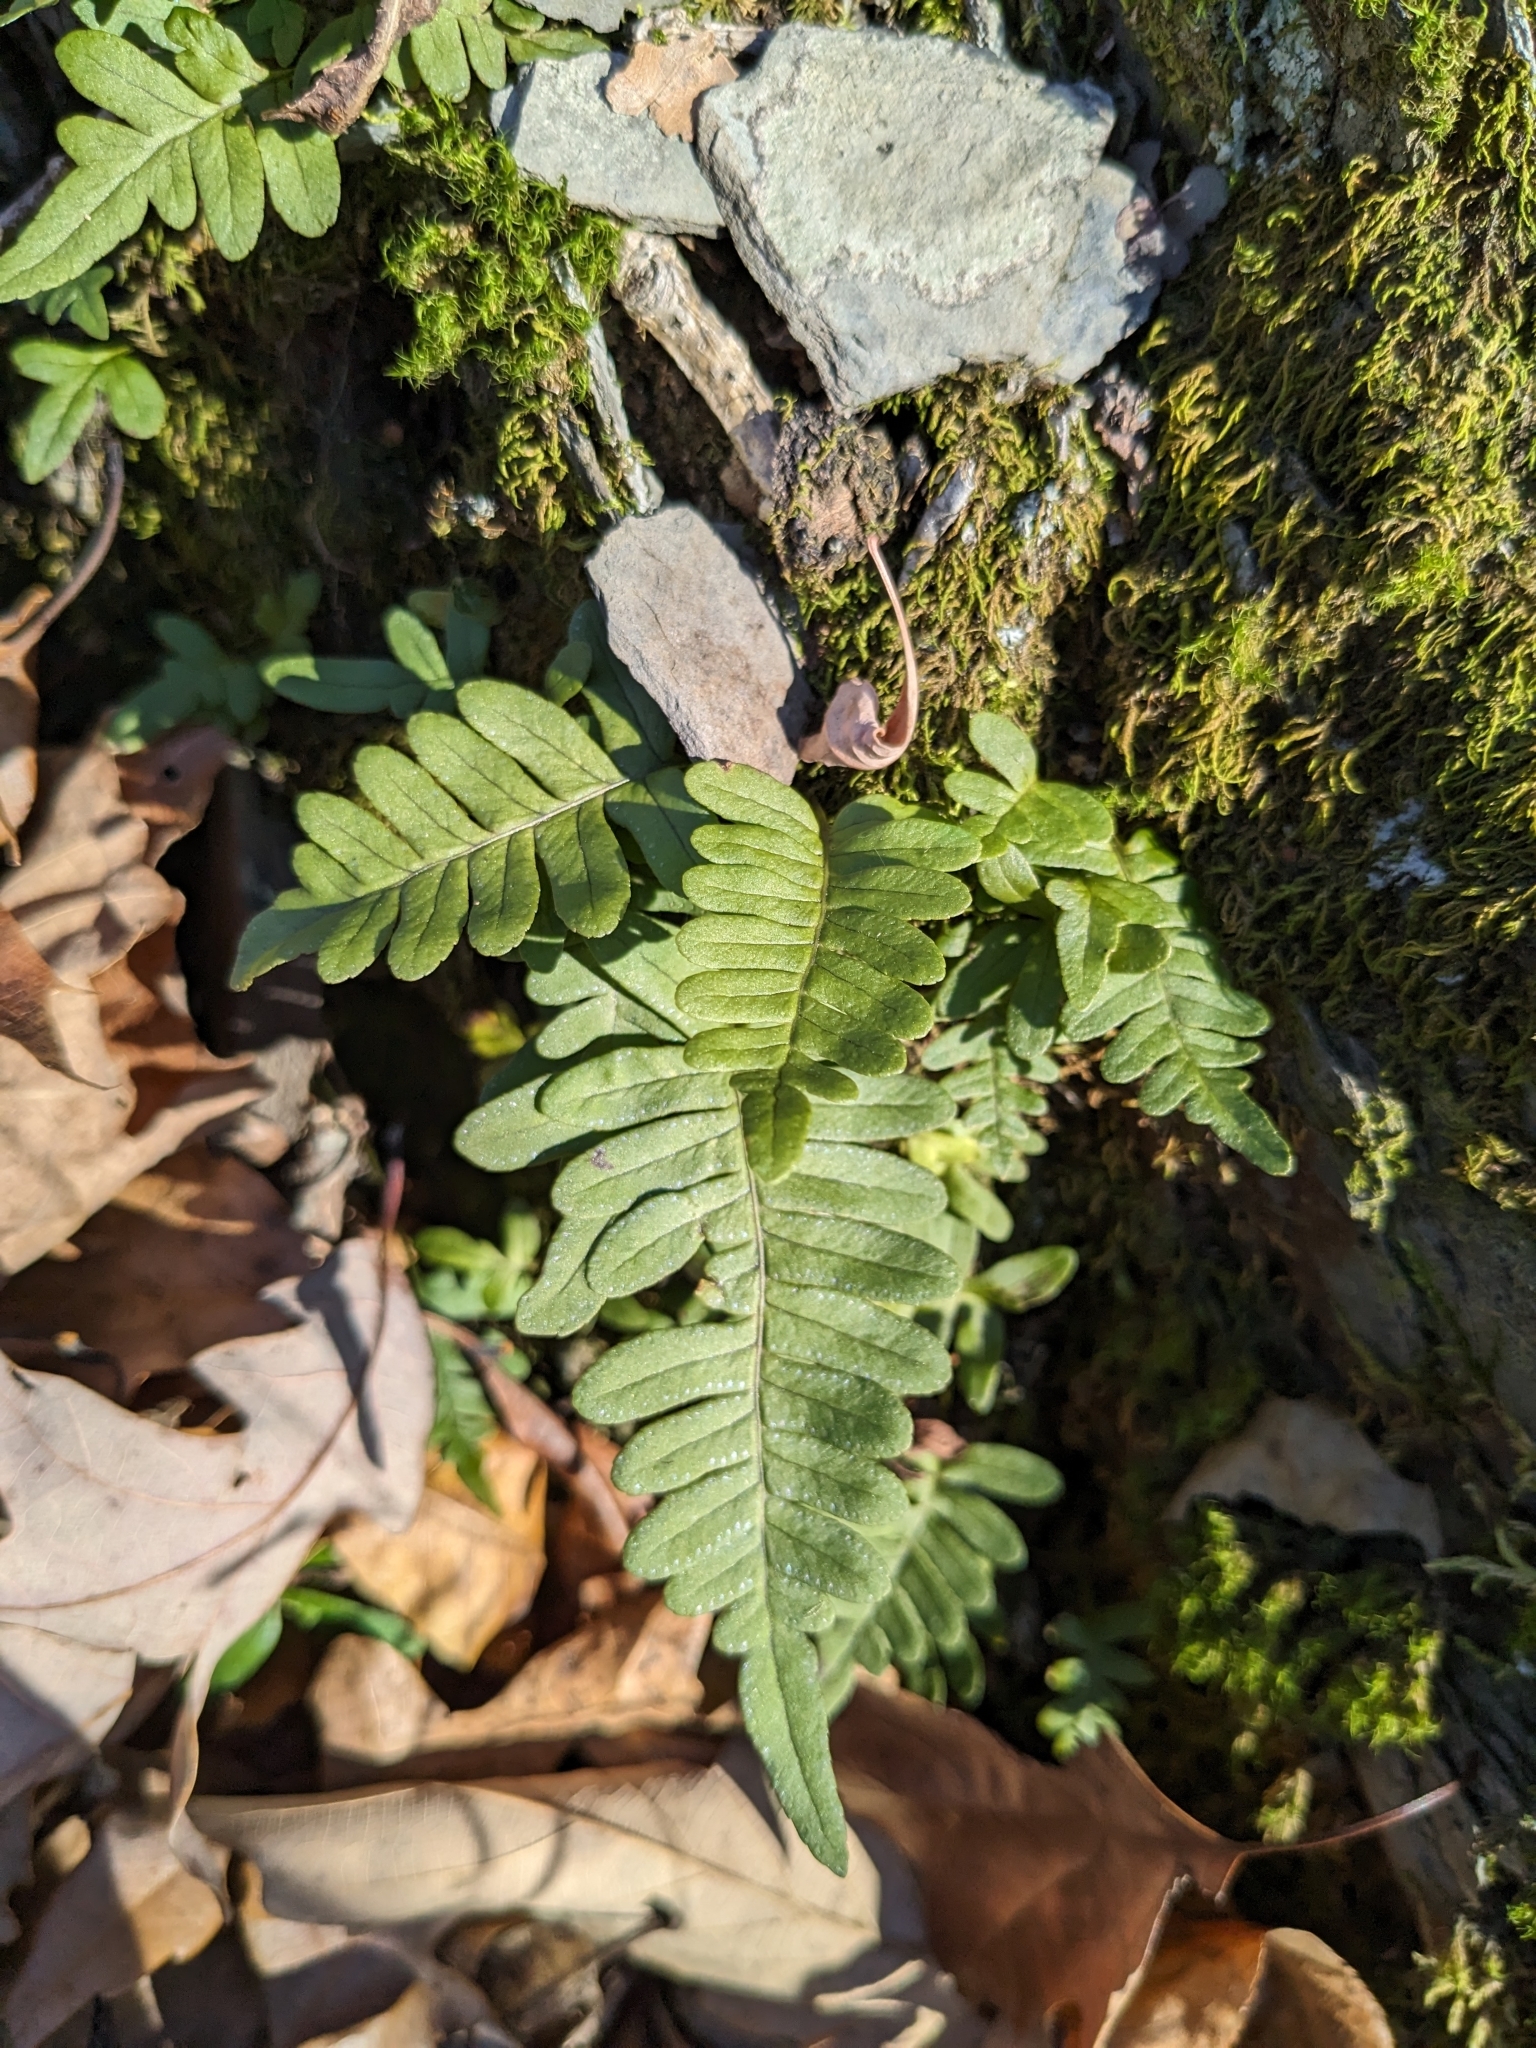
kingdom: Plantae
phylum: Tracheophyta
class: Polypodiopsida
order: Polypodiales
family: Polypodiaceae
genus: Polypodium
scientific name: Polypodium virginianum
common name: American wall fern
